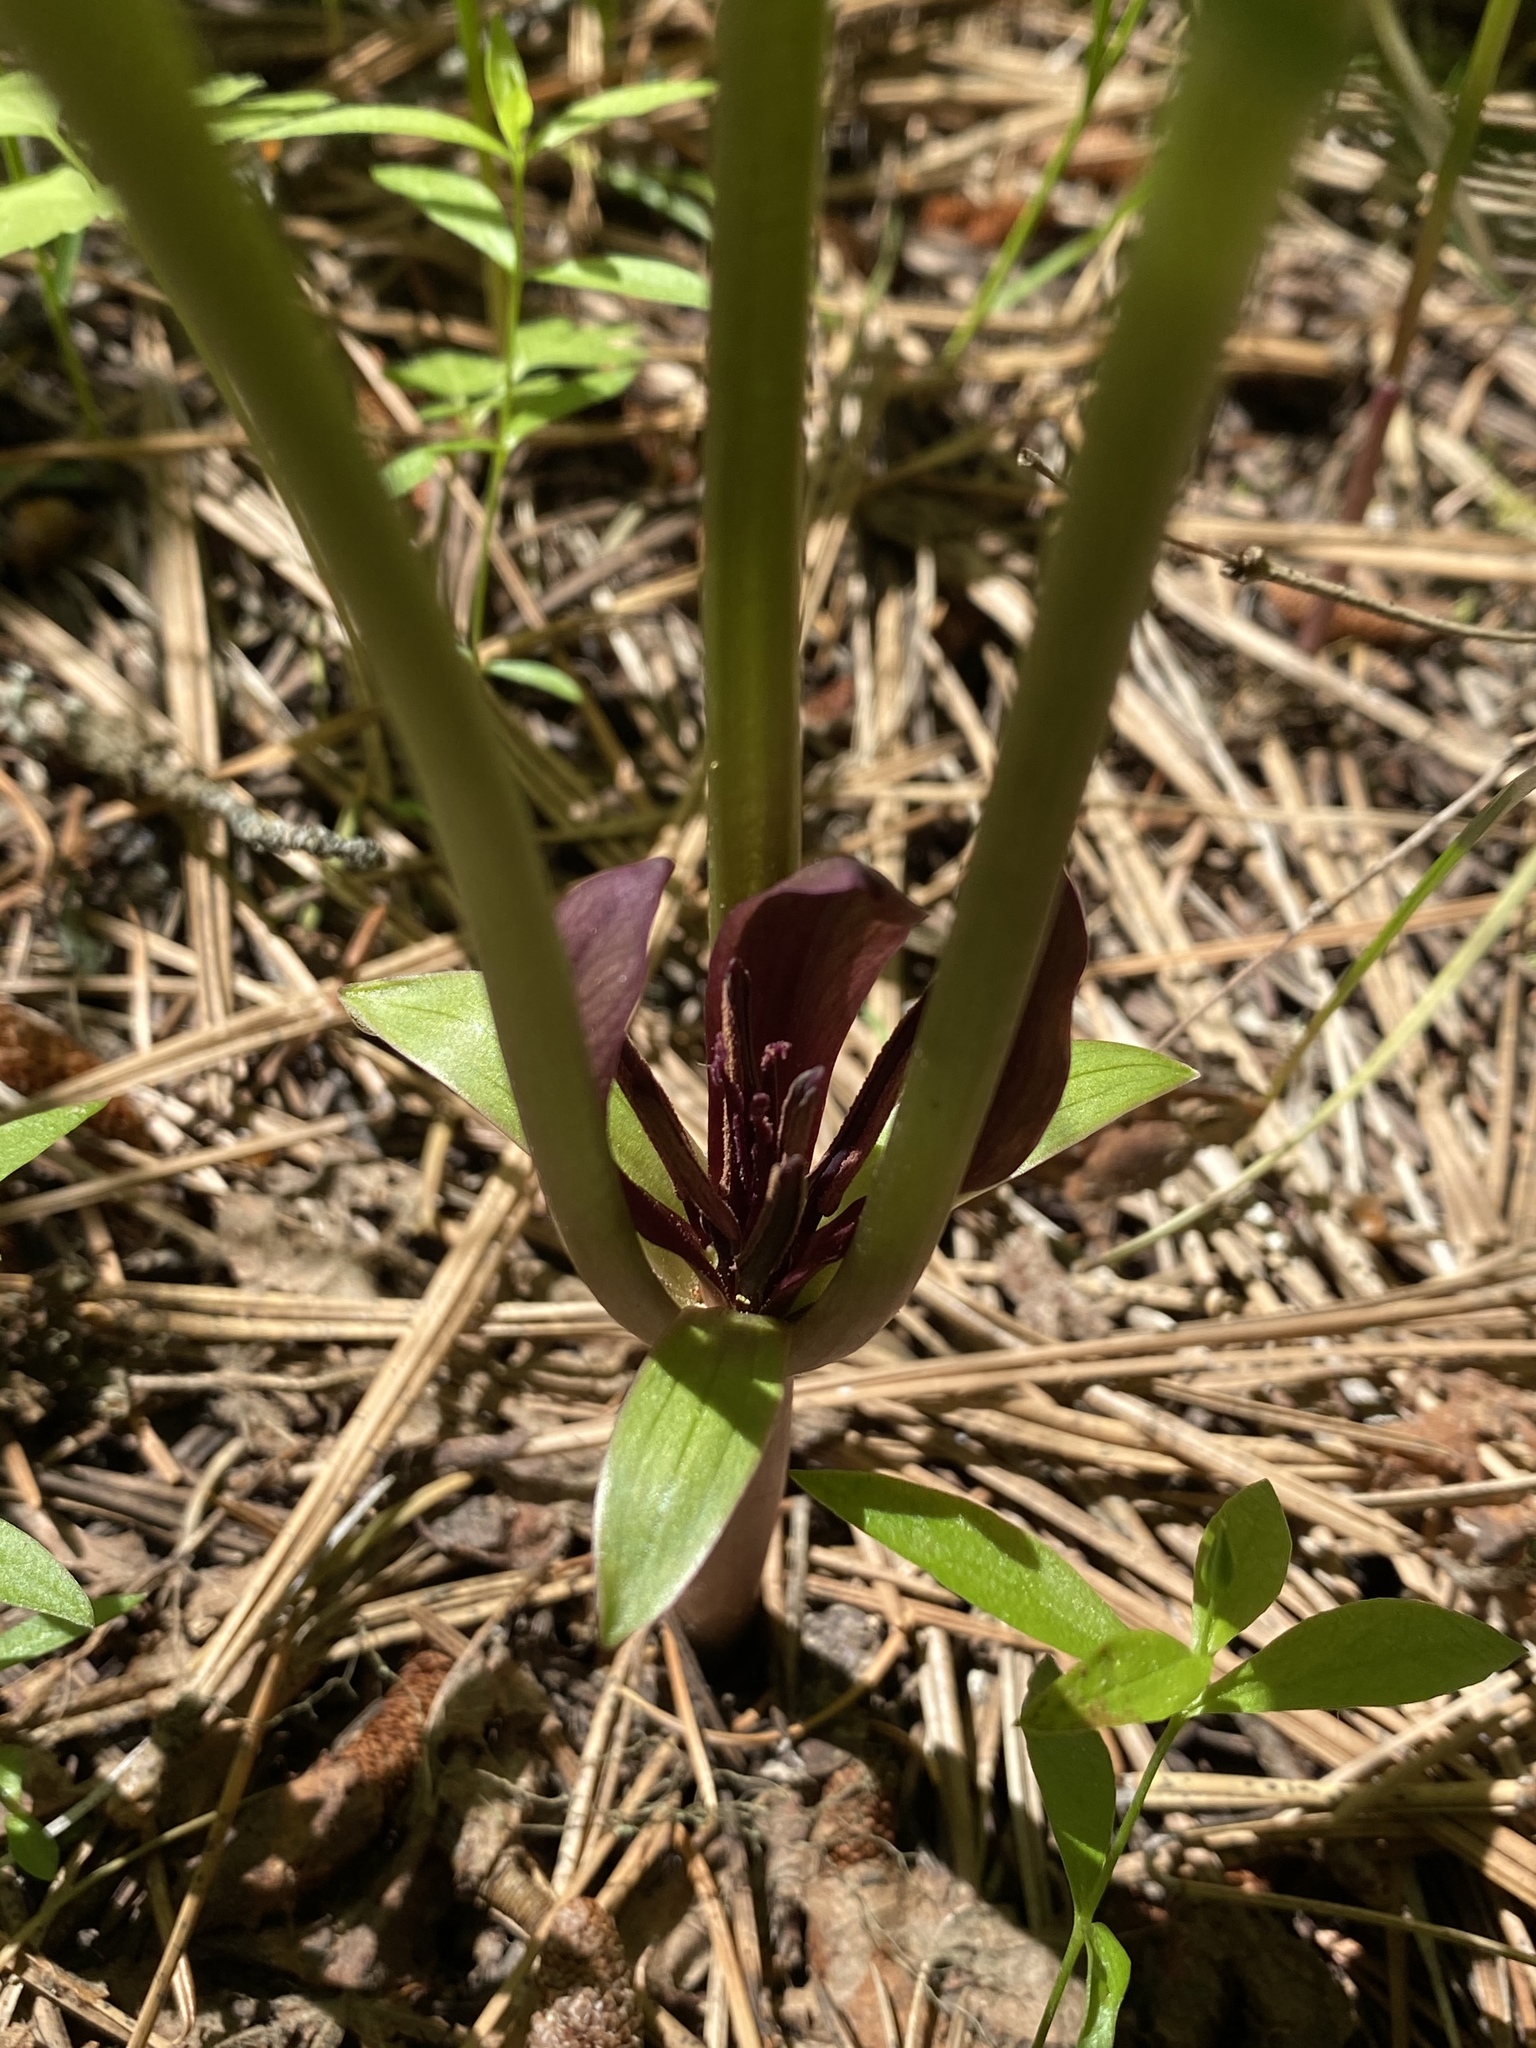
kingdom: Plantae
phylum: Tracheophyta
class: Liliopsida
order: Liliales
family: Melanthiaceae
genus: Trillium
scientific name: Trillium petiolatum
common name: Idaho trillium
